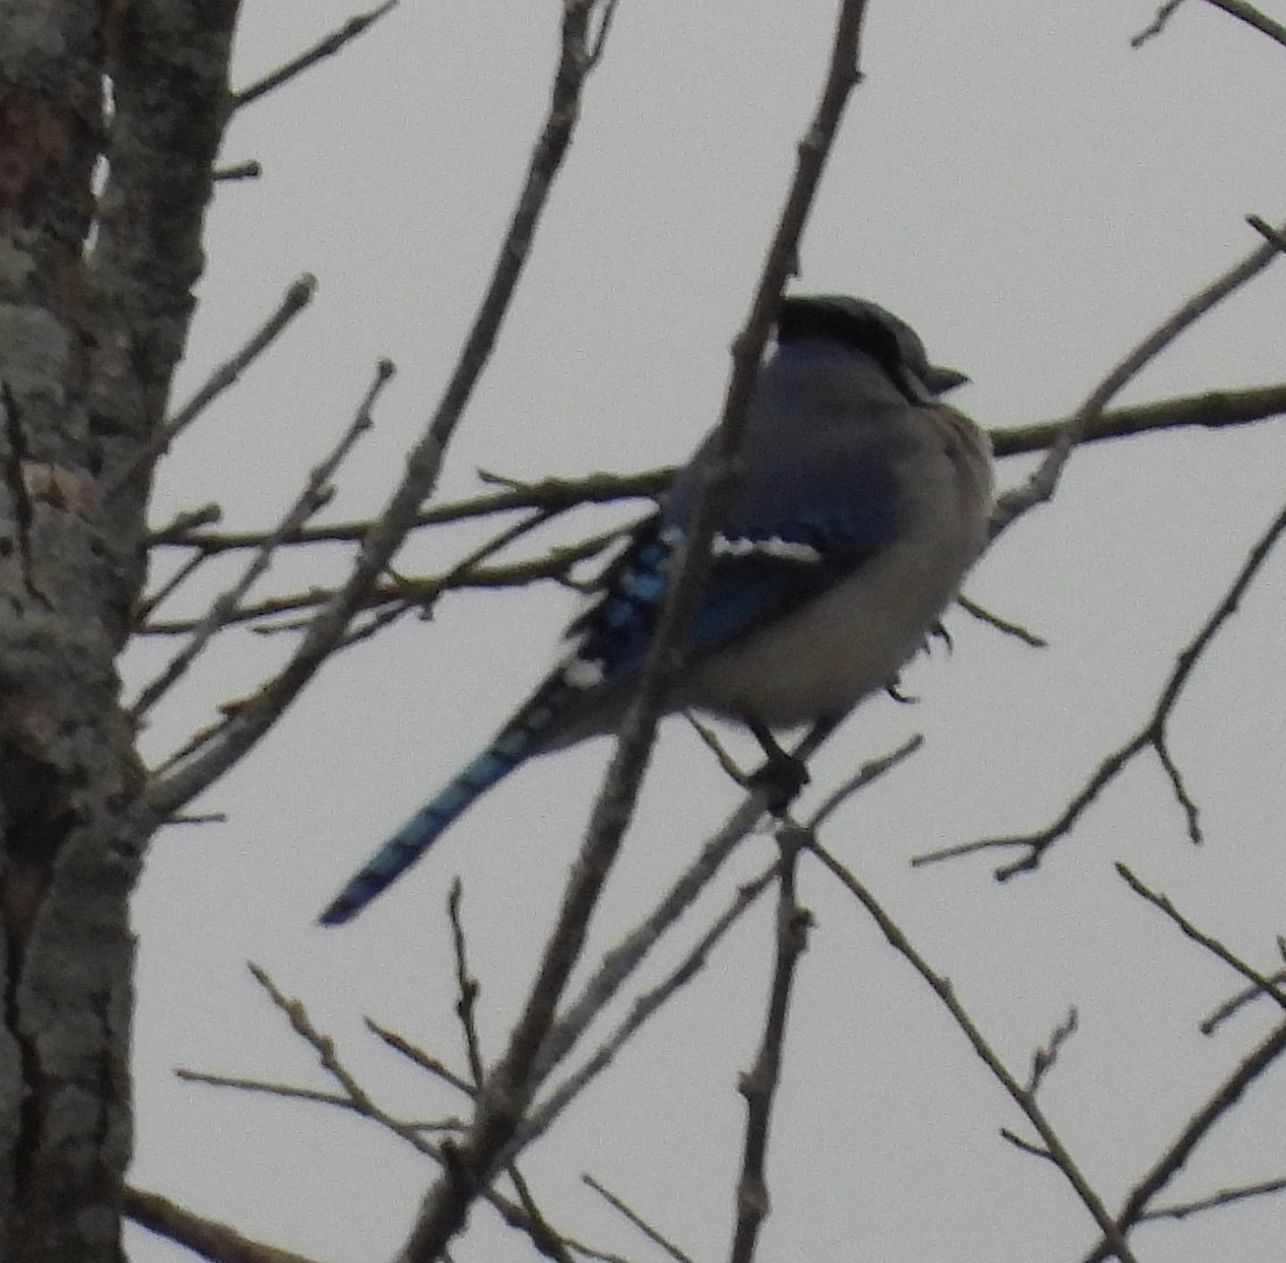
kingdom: Animalia
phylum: Chordata
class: Aves
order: Passeriformes
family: Corvidae
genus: Cyanocitta
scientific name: Cyanocitta cristata
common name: Blue jay
